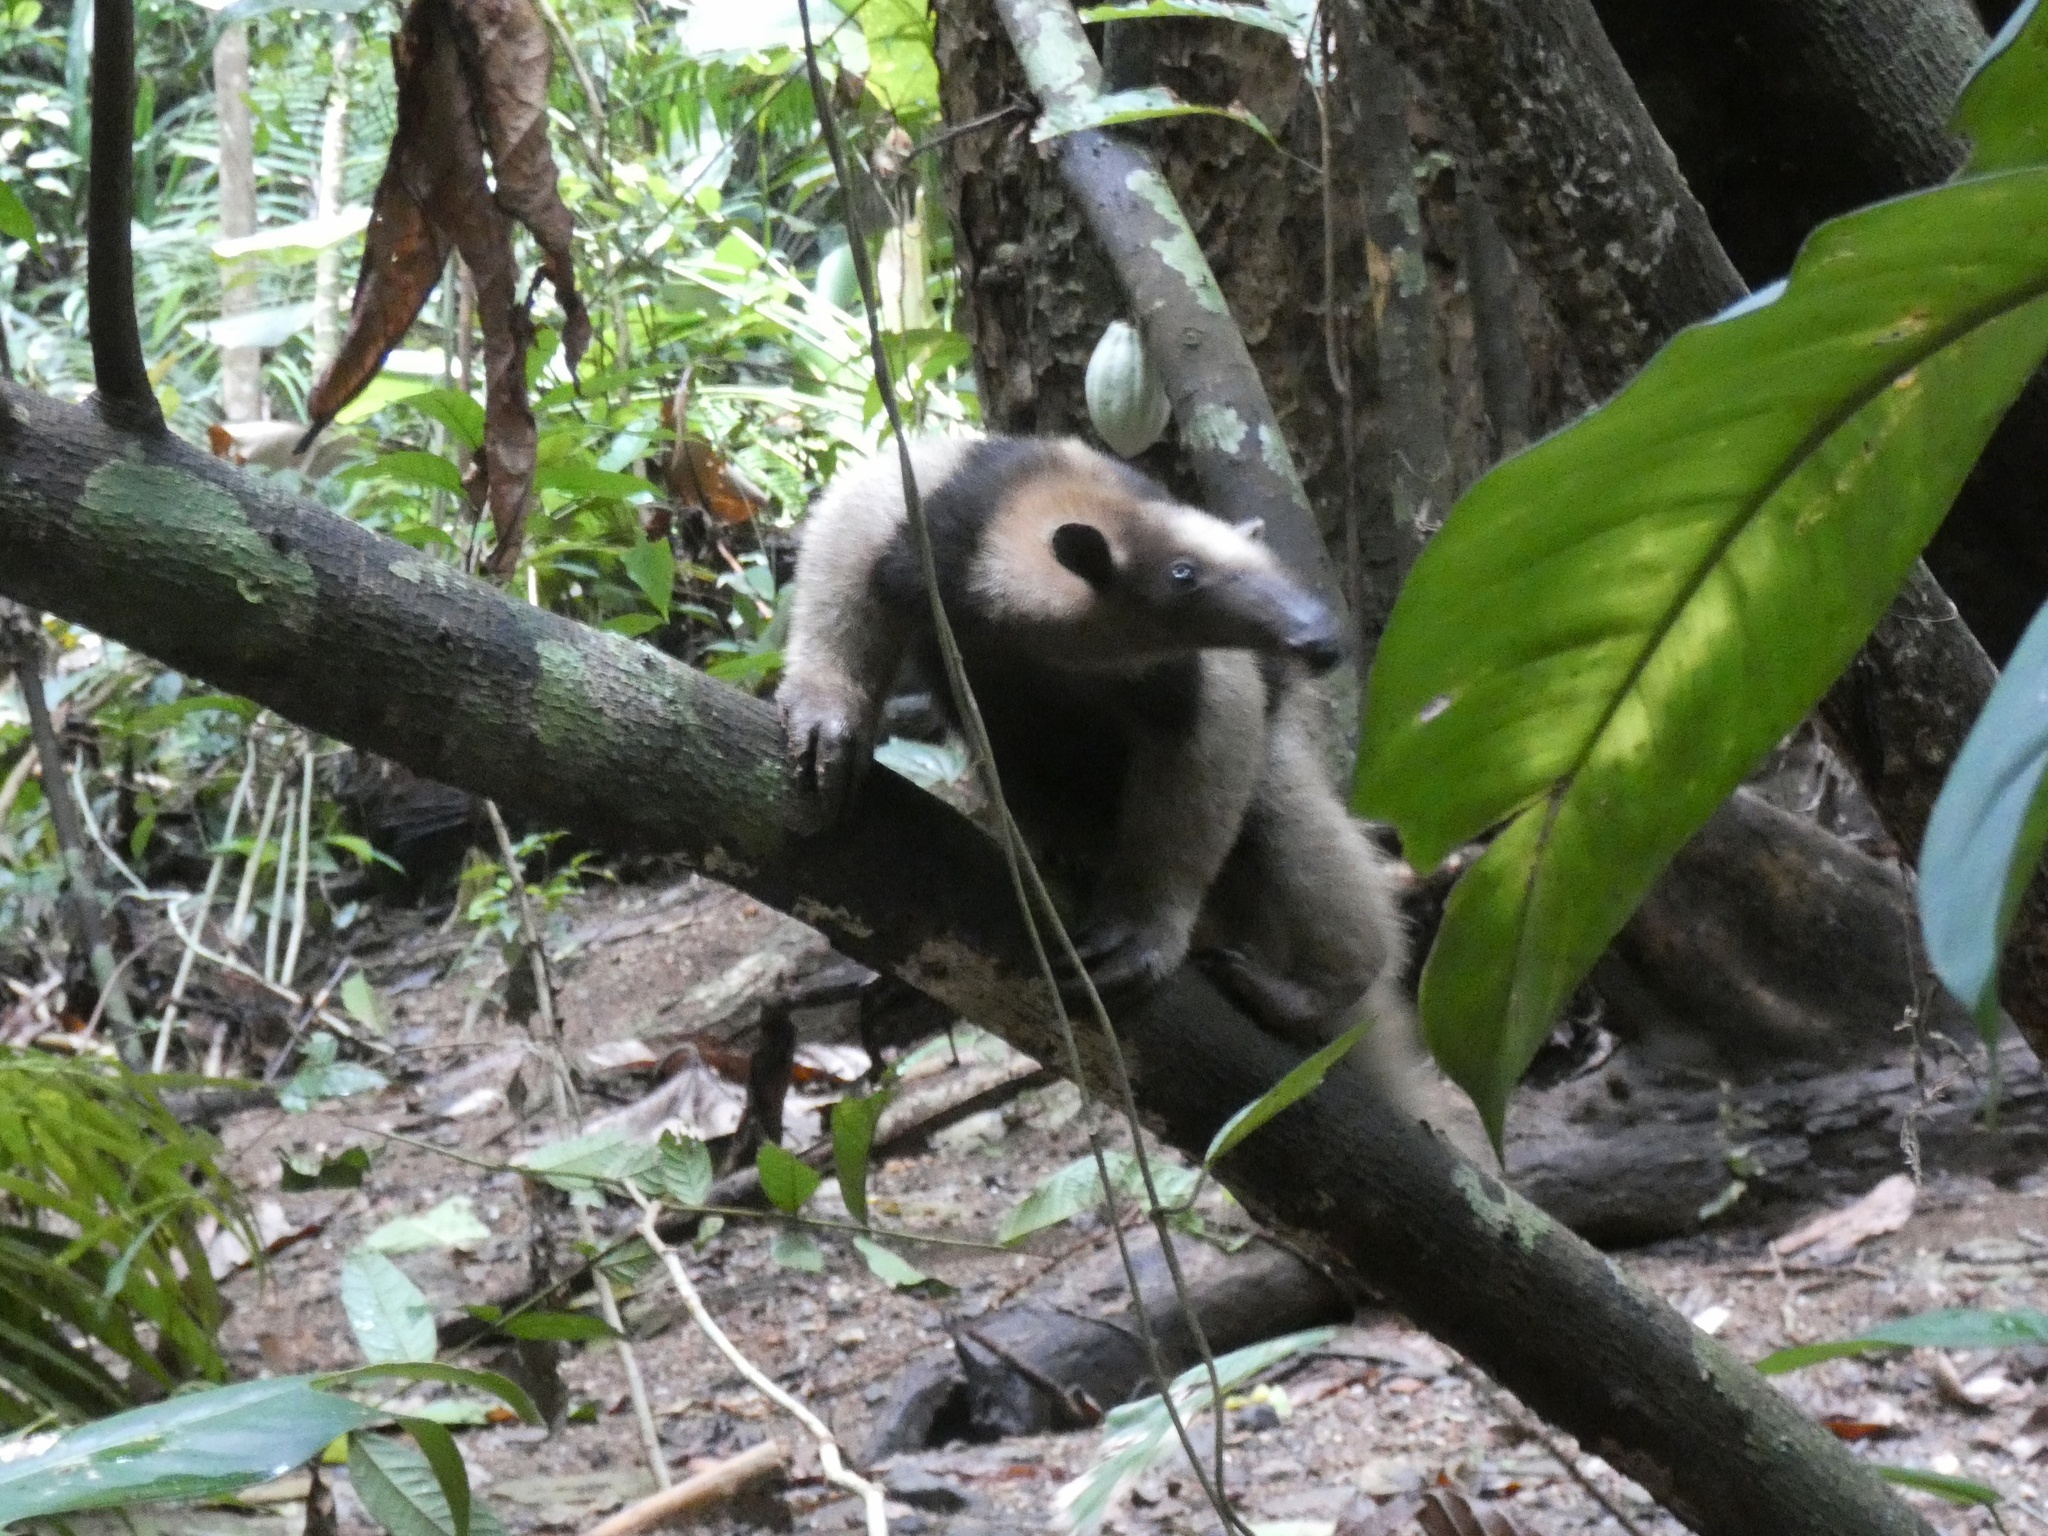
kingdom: Animalia
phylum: Chordata
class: Mammalia
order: Pilosa
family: Myrmecophagidae
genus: Tamandua
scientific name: Tamandua mexicana
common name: Northern tamandua
